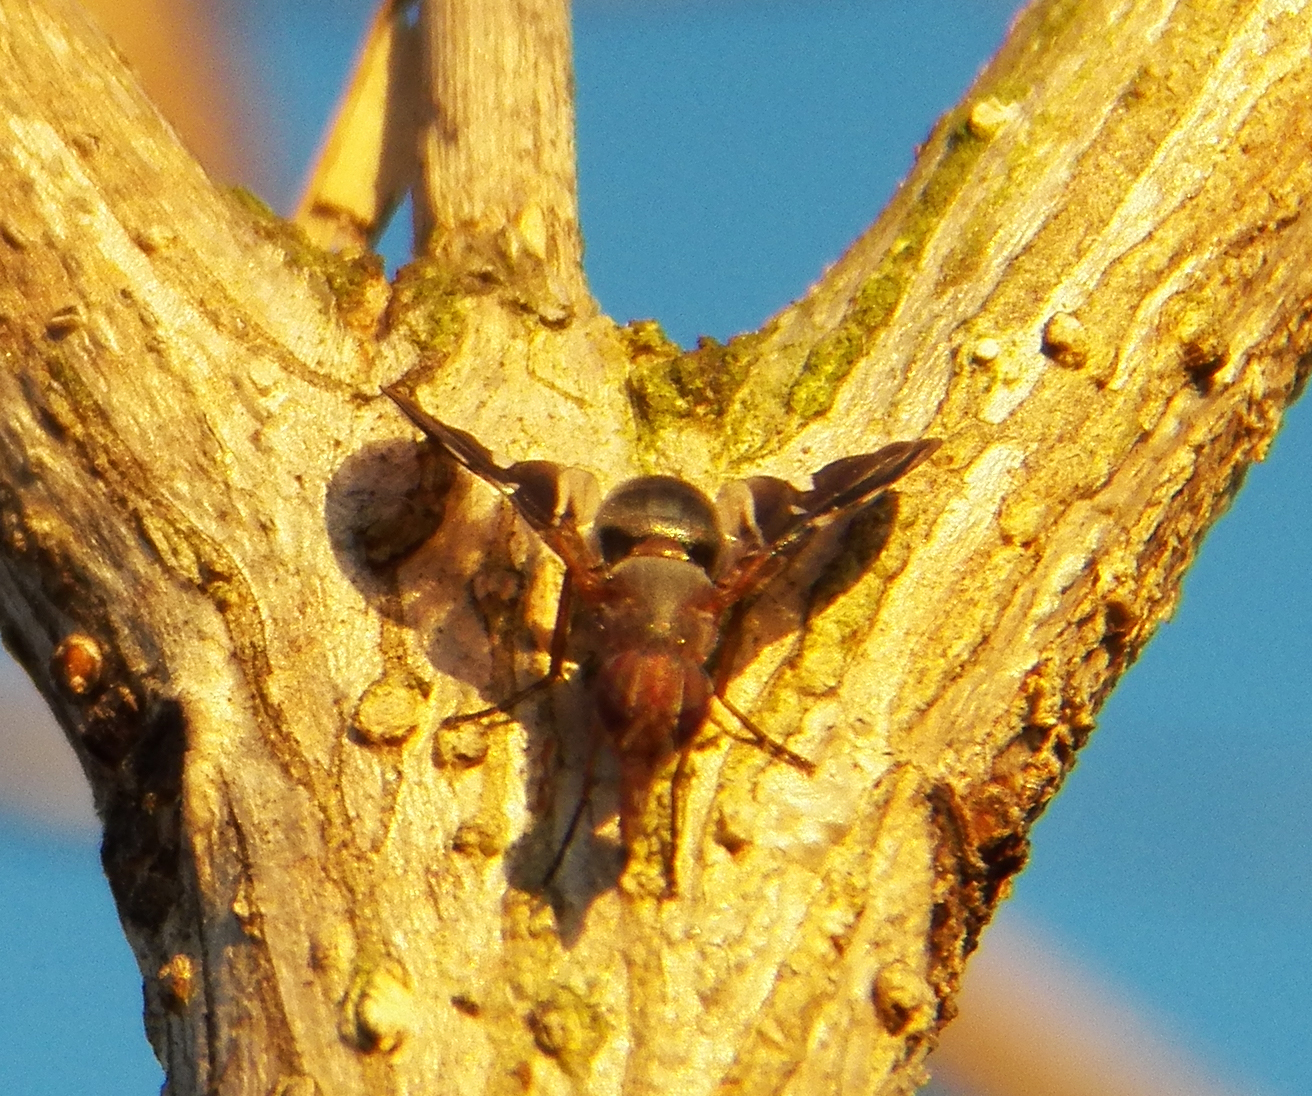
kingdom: Animalia
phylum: Arthropoda
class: Insecta
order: Diptera
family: Ulidiidae
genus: Delphinia
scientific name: Delphinia picta
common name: Common picture-winged fly
